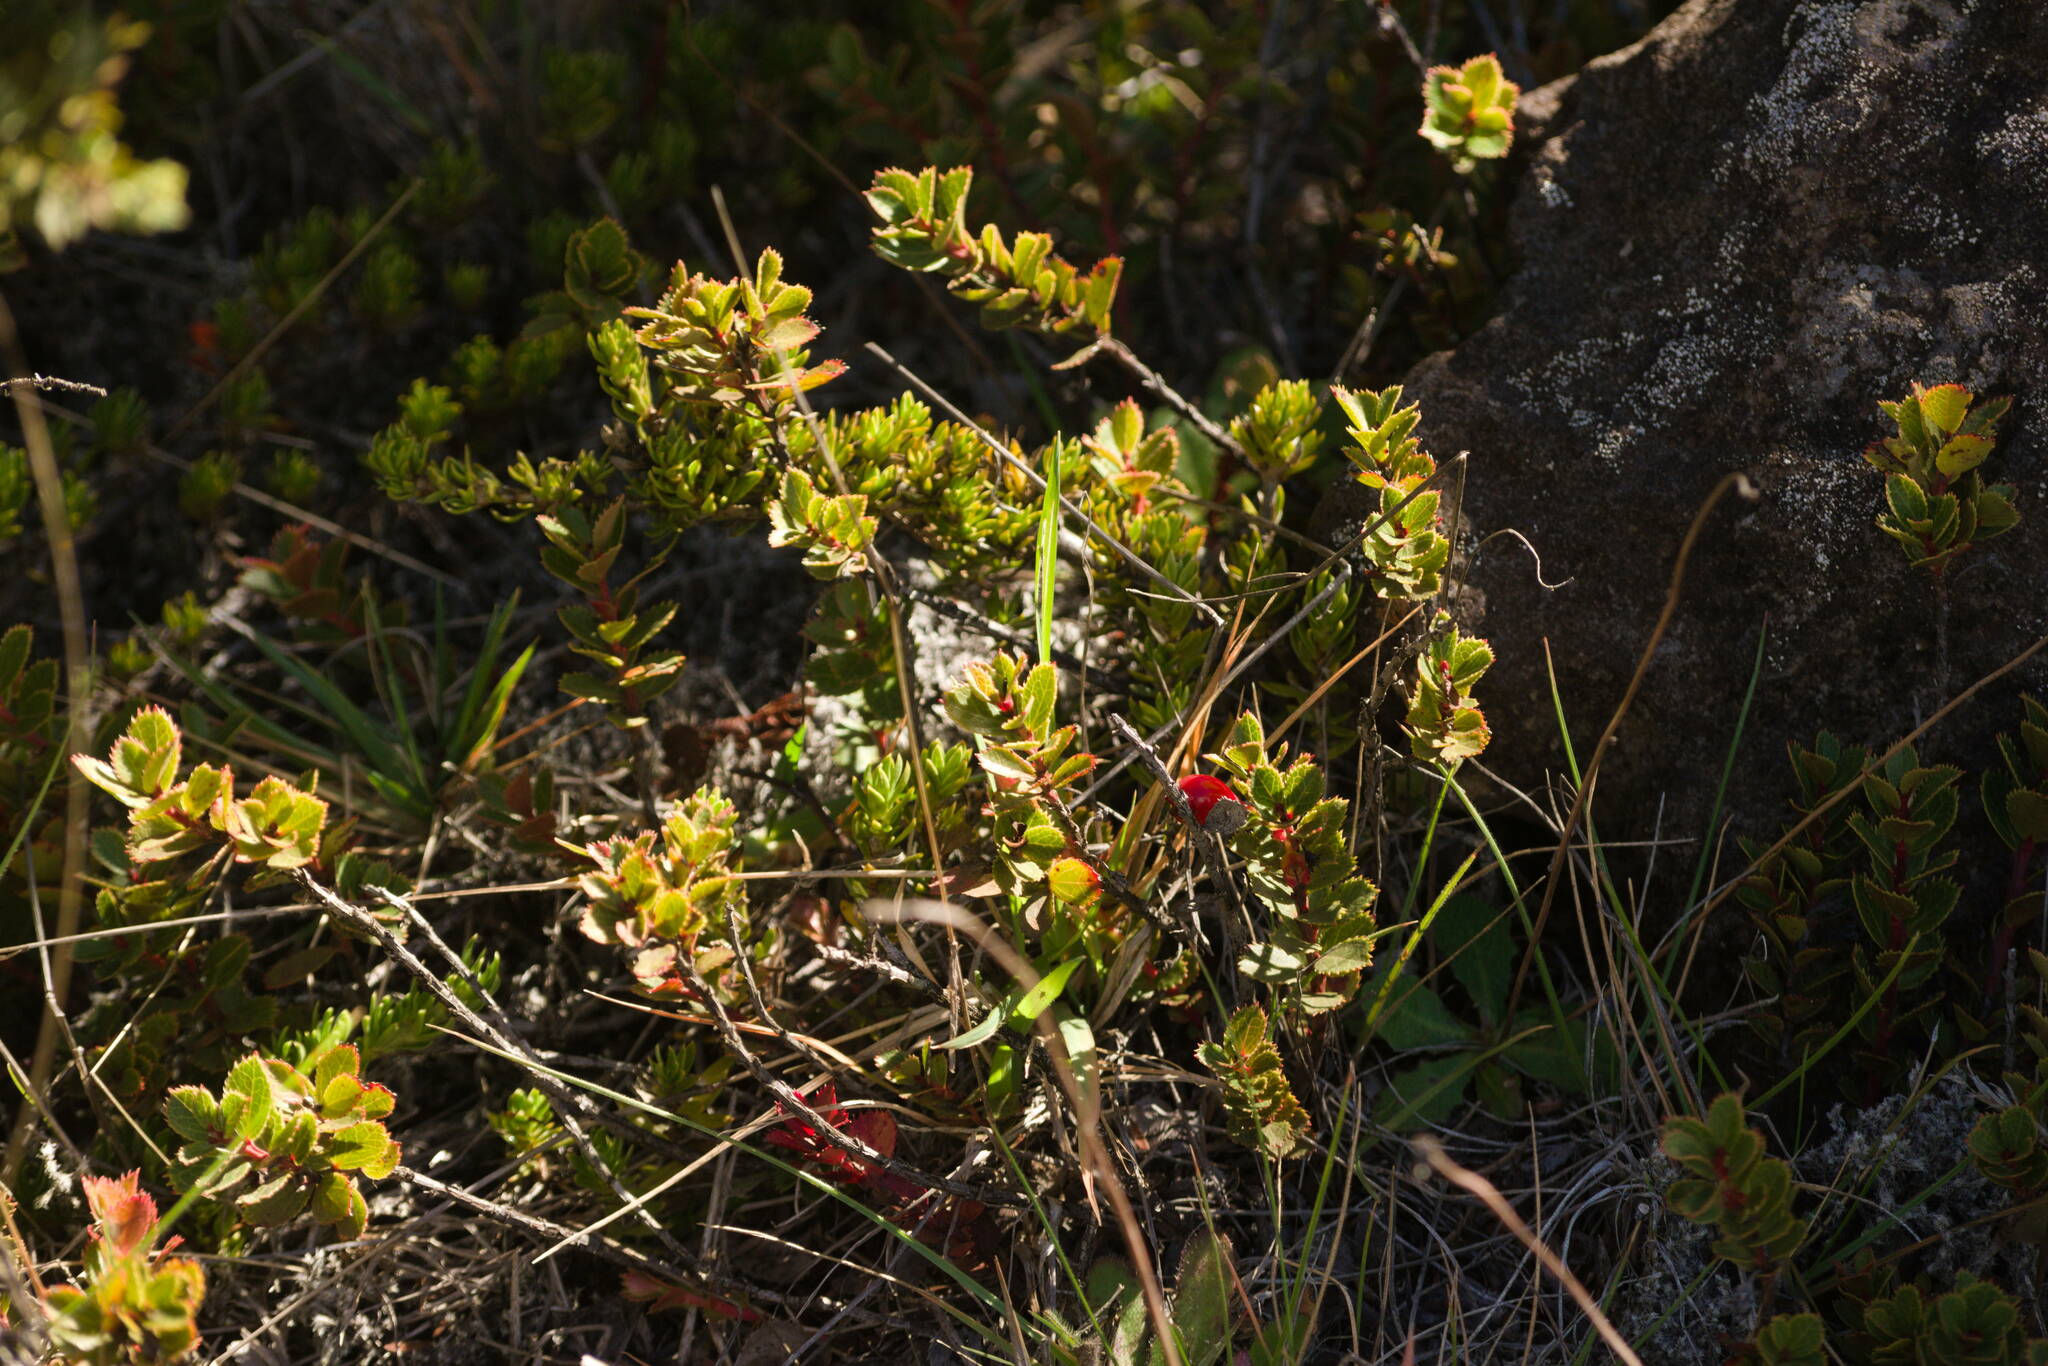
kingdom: Plantae
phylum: Tracheophyta
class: Magnoliopsida
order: Ericales
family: Ericaceae
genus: Vaccinium
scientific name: Vaccinium reticulatum
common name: Ohelo
